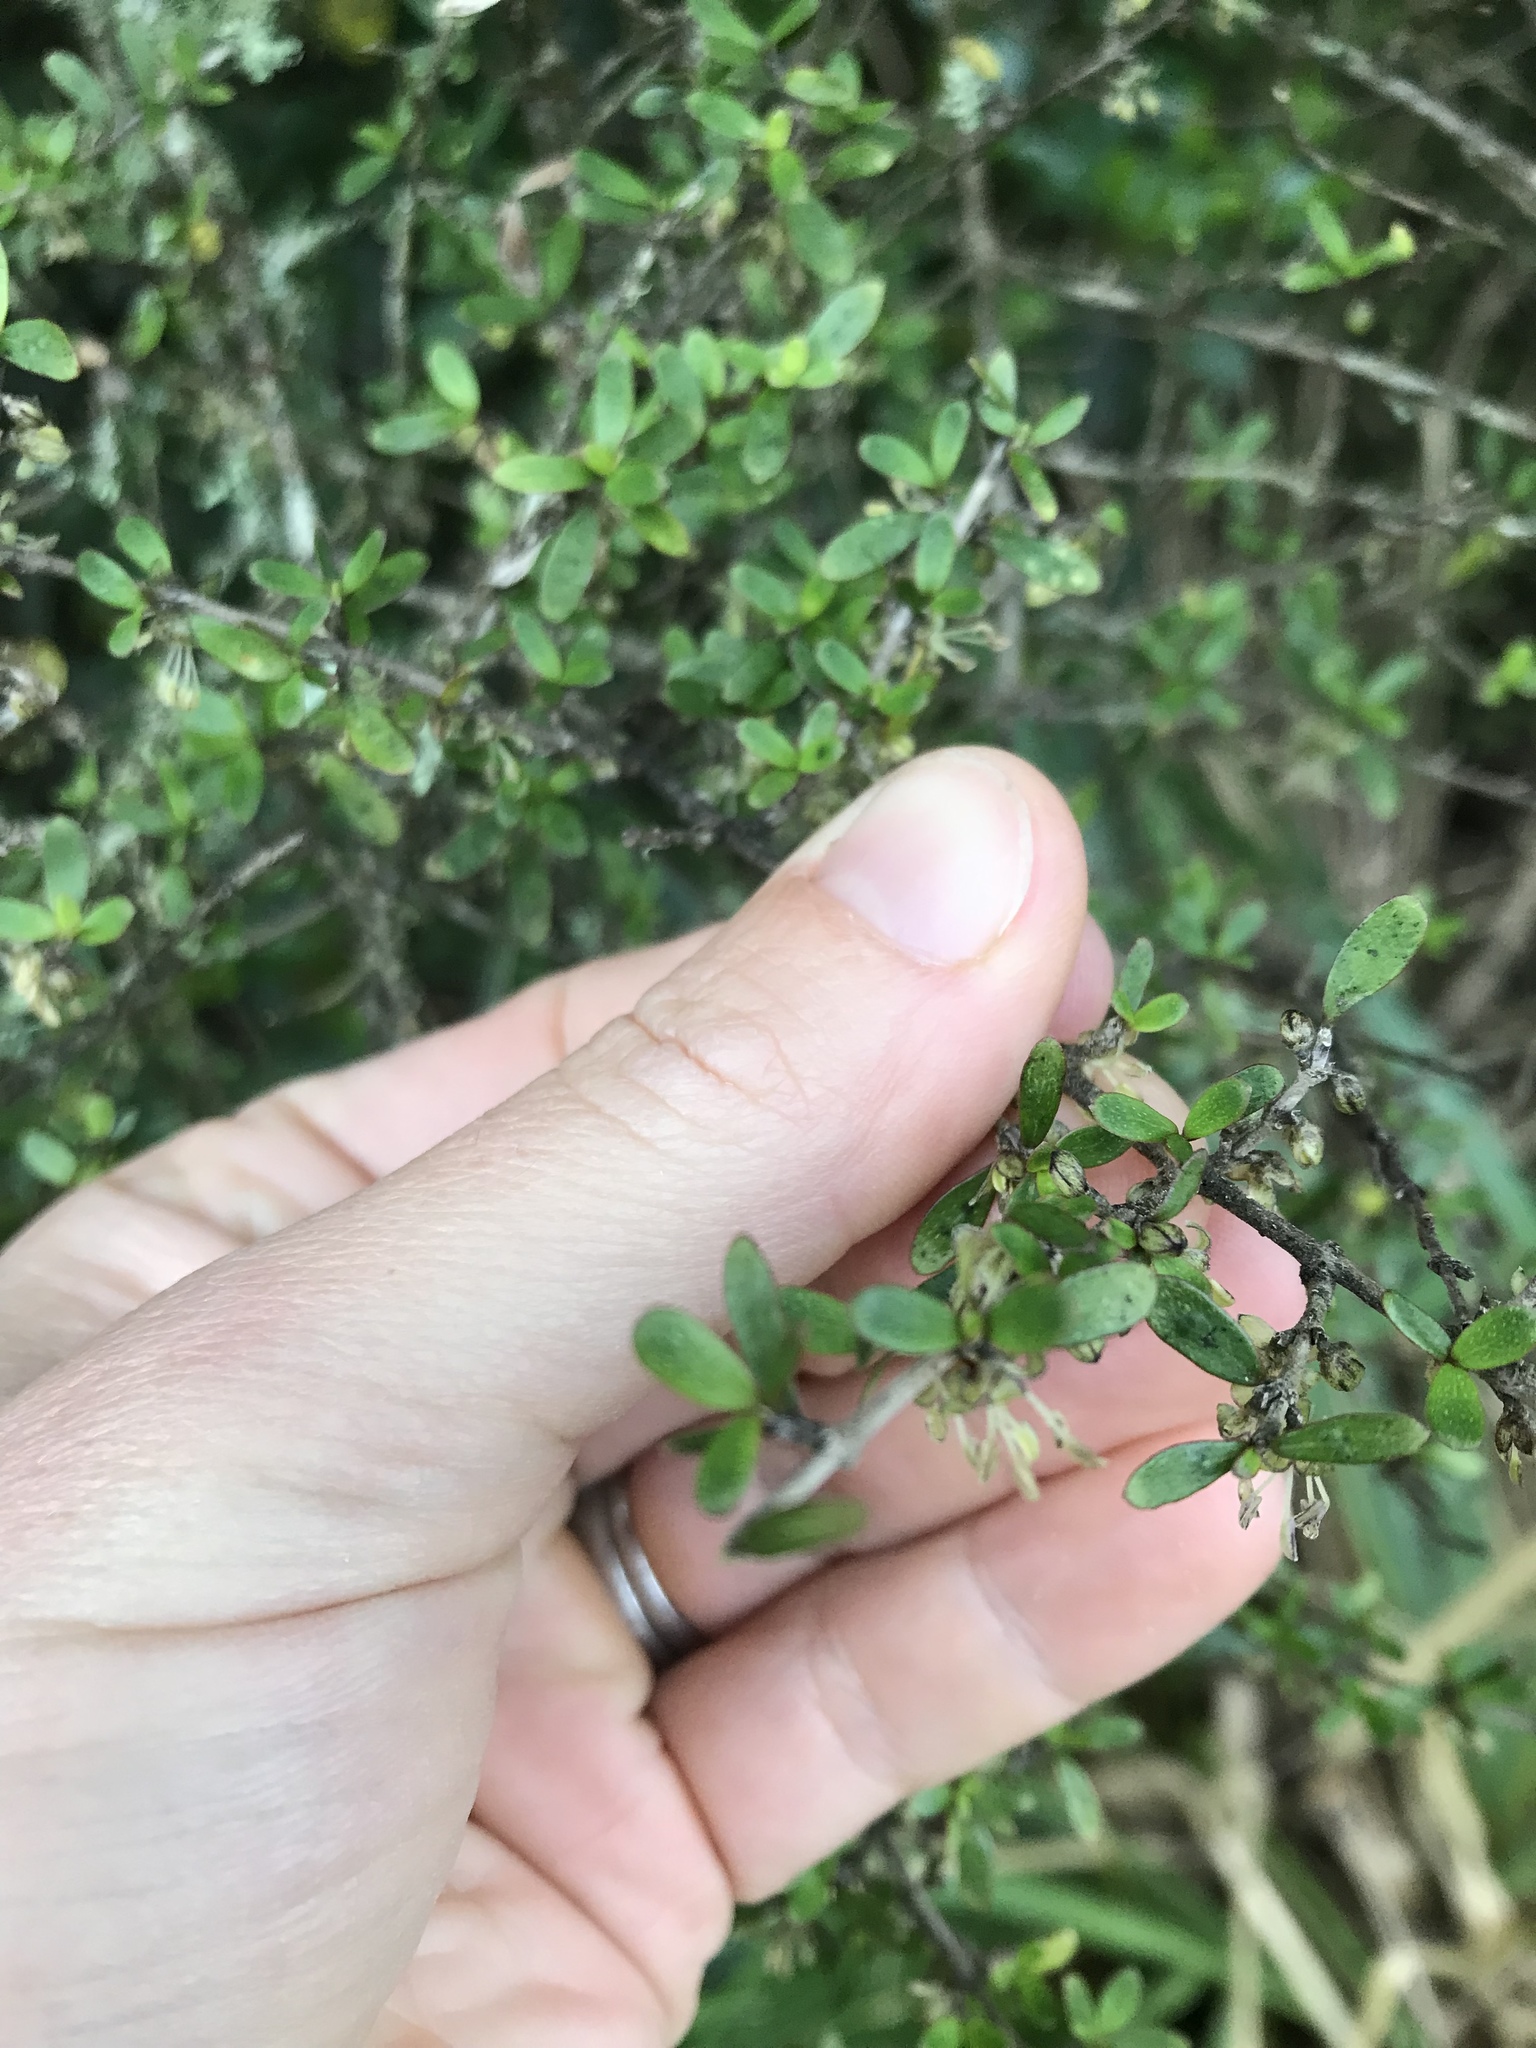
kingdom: Plantae
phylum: Tracheophyta
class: Magnoliopsida
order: Gentianales
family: Rubiaceae
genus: Coprosma
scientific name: Coprosma propinqua
